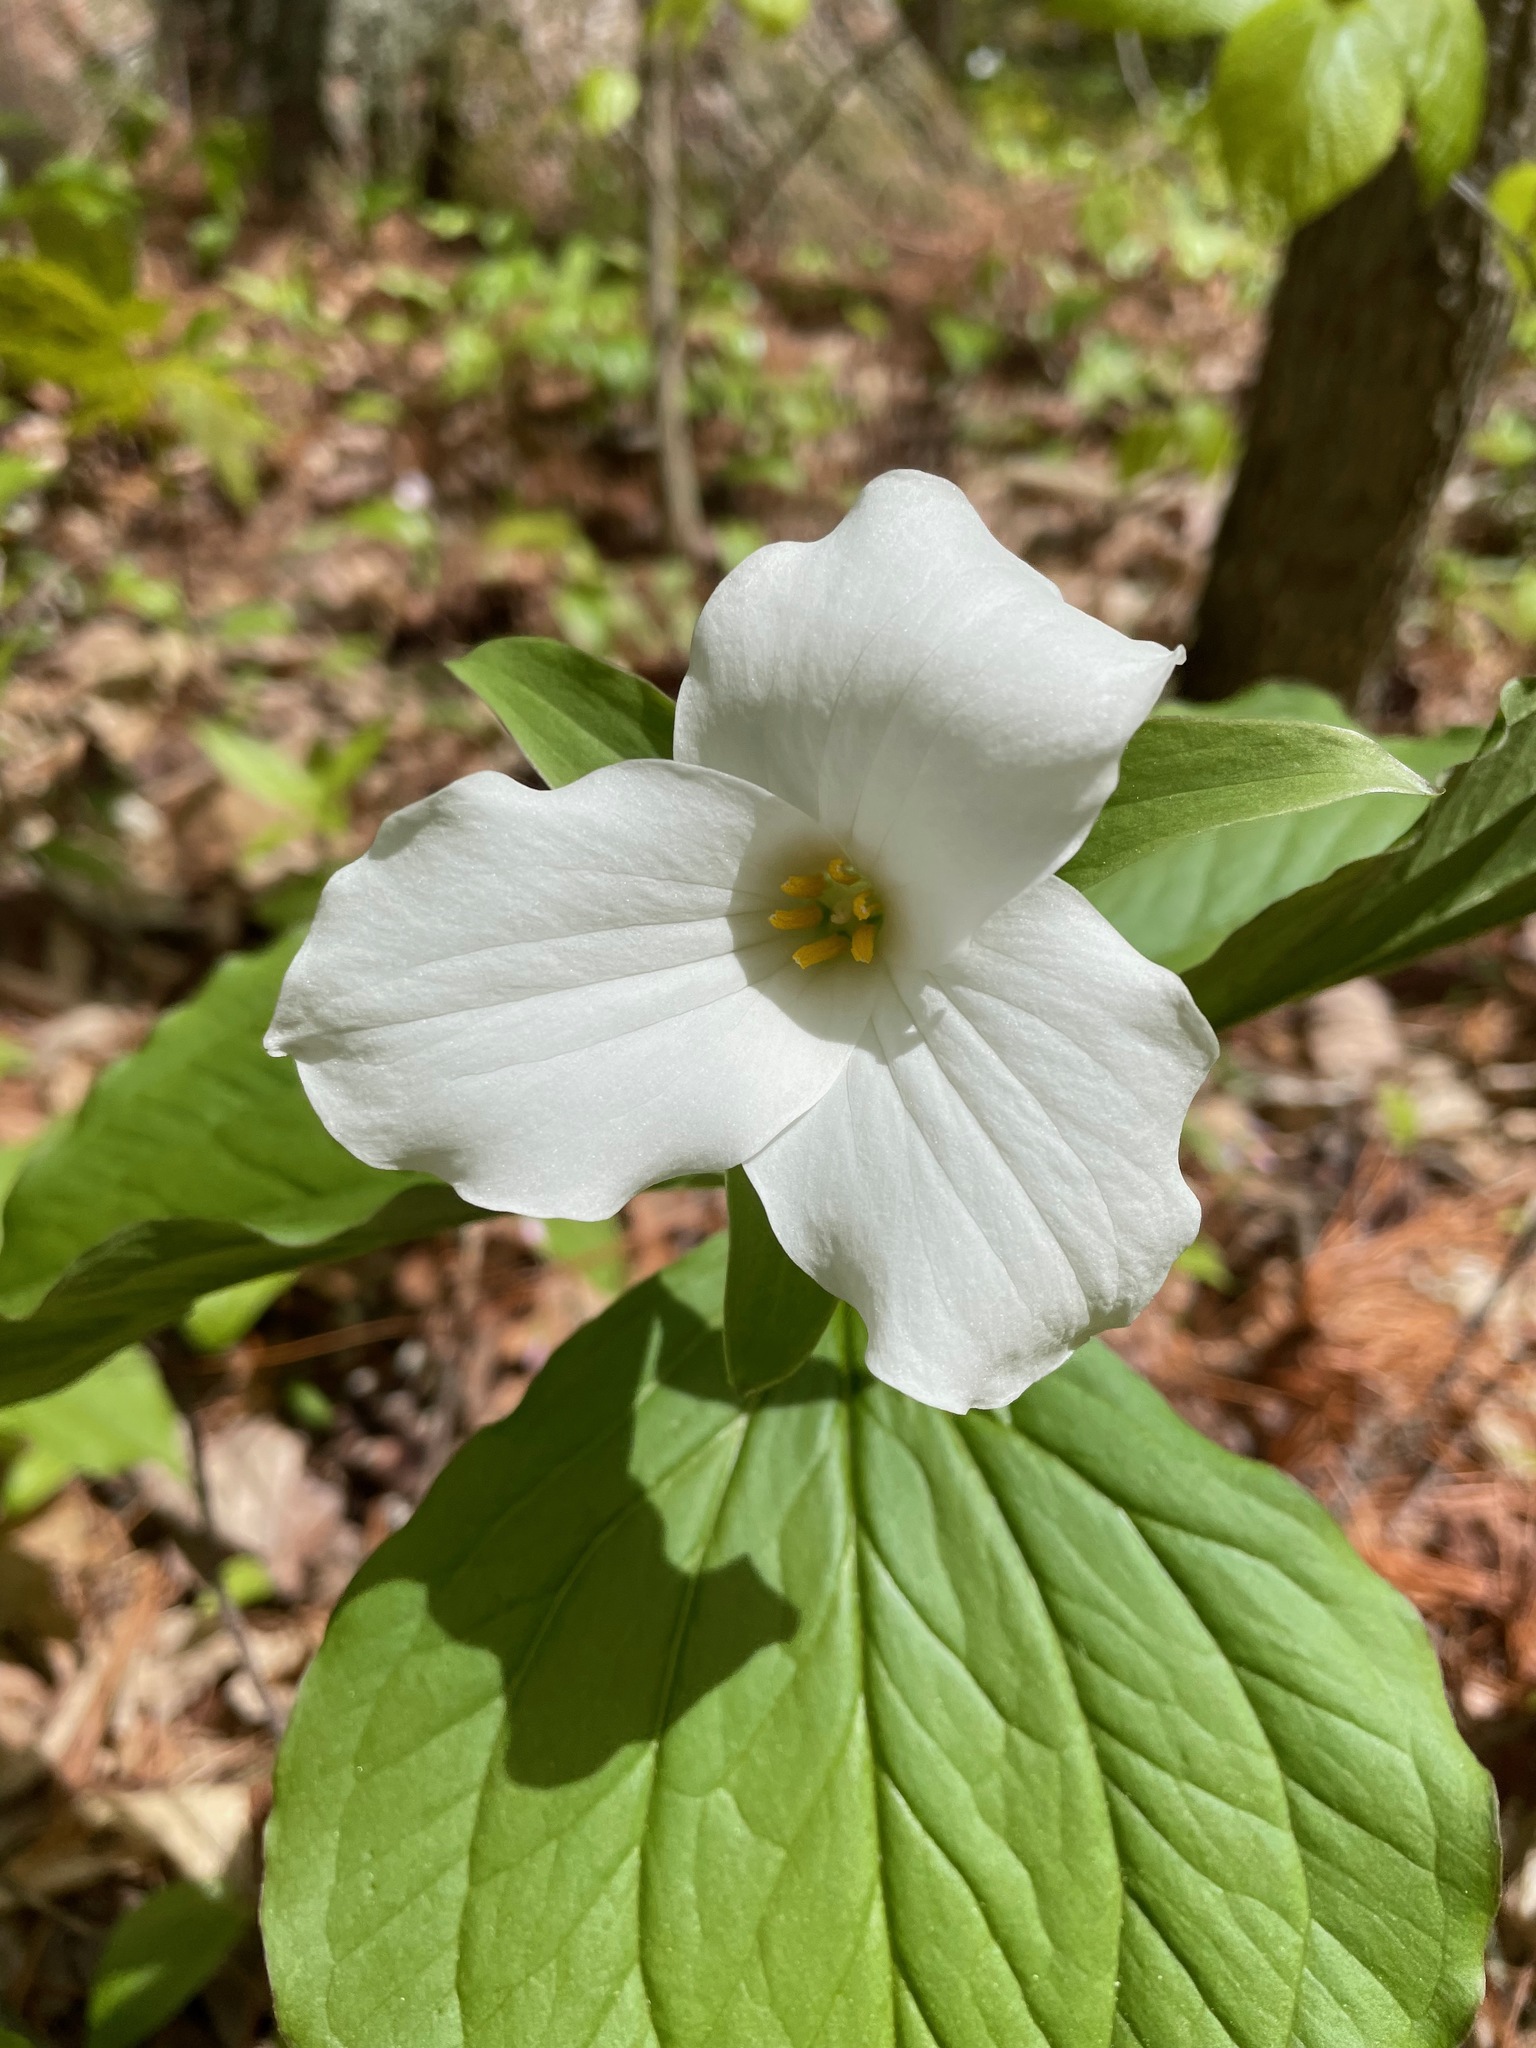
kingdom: Plantae
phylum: Tracheophyta
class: Liliopsida
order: Liliales
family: Melanthiaceae
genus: Trillium
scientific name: Trillium grandiflorum
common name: Great white trillium
